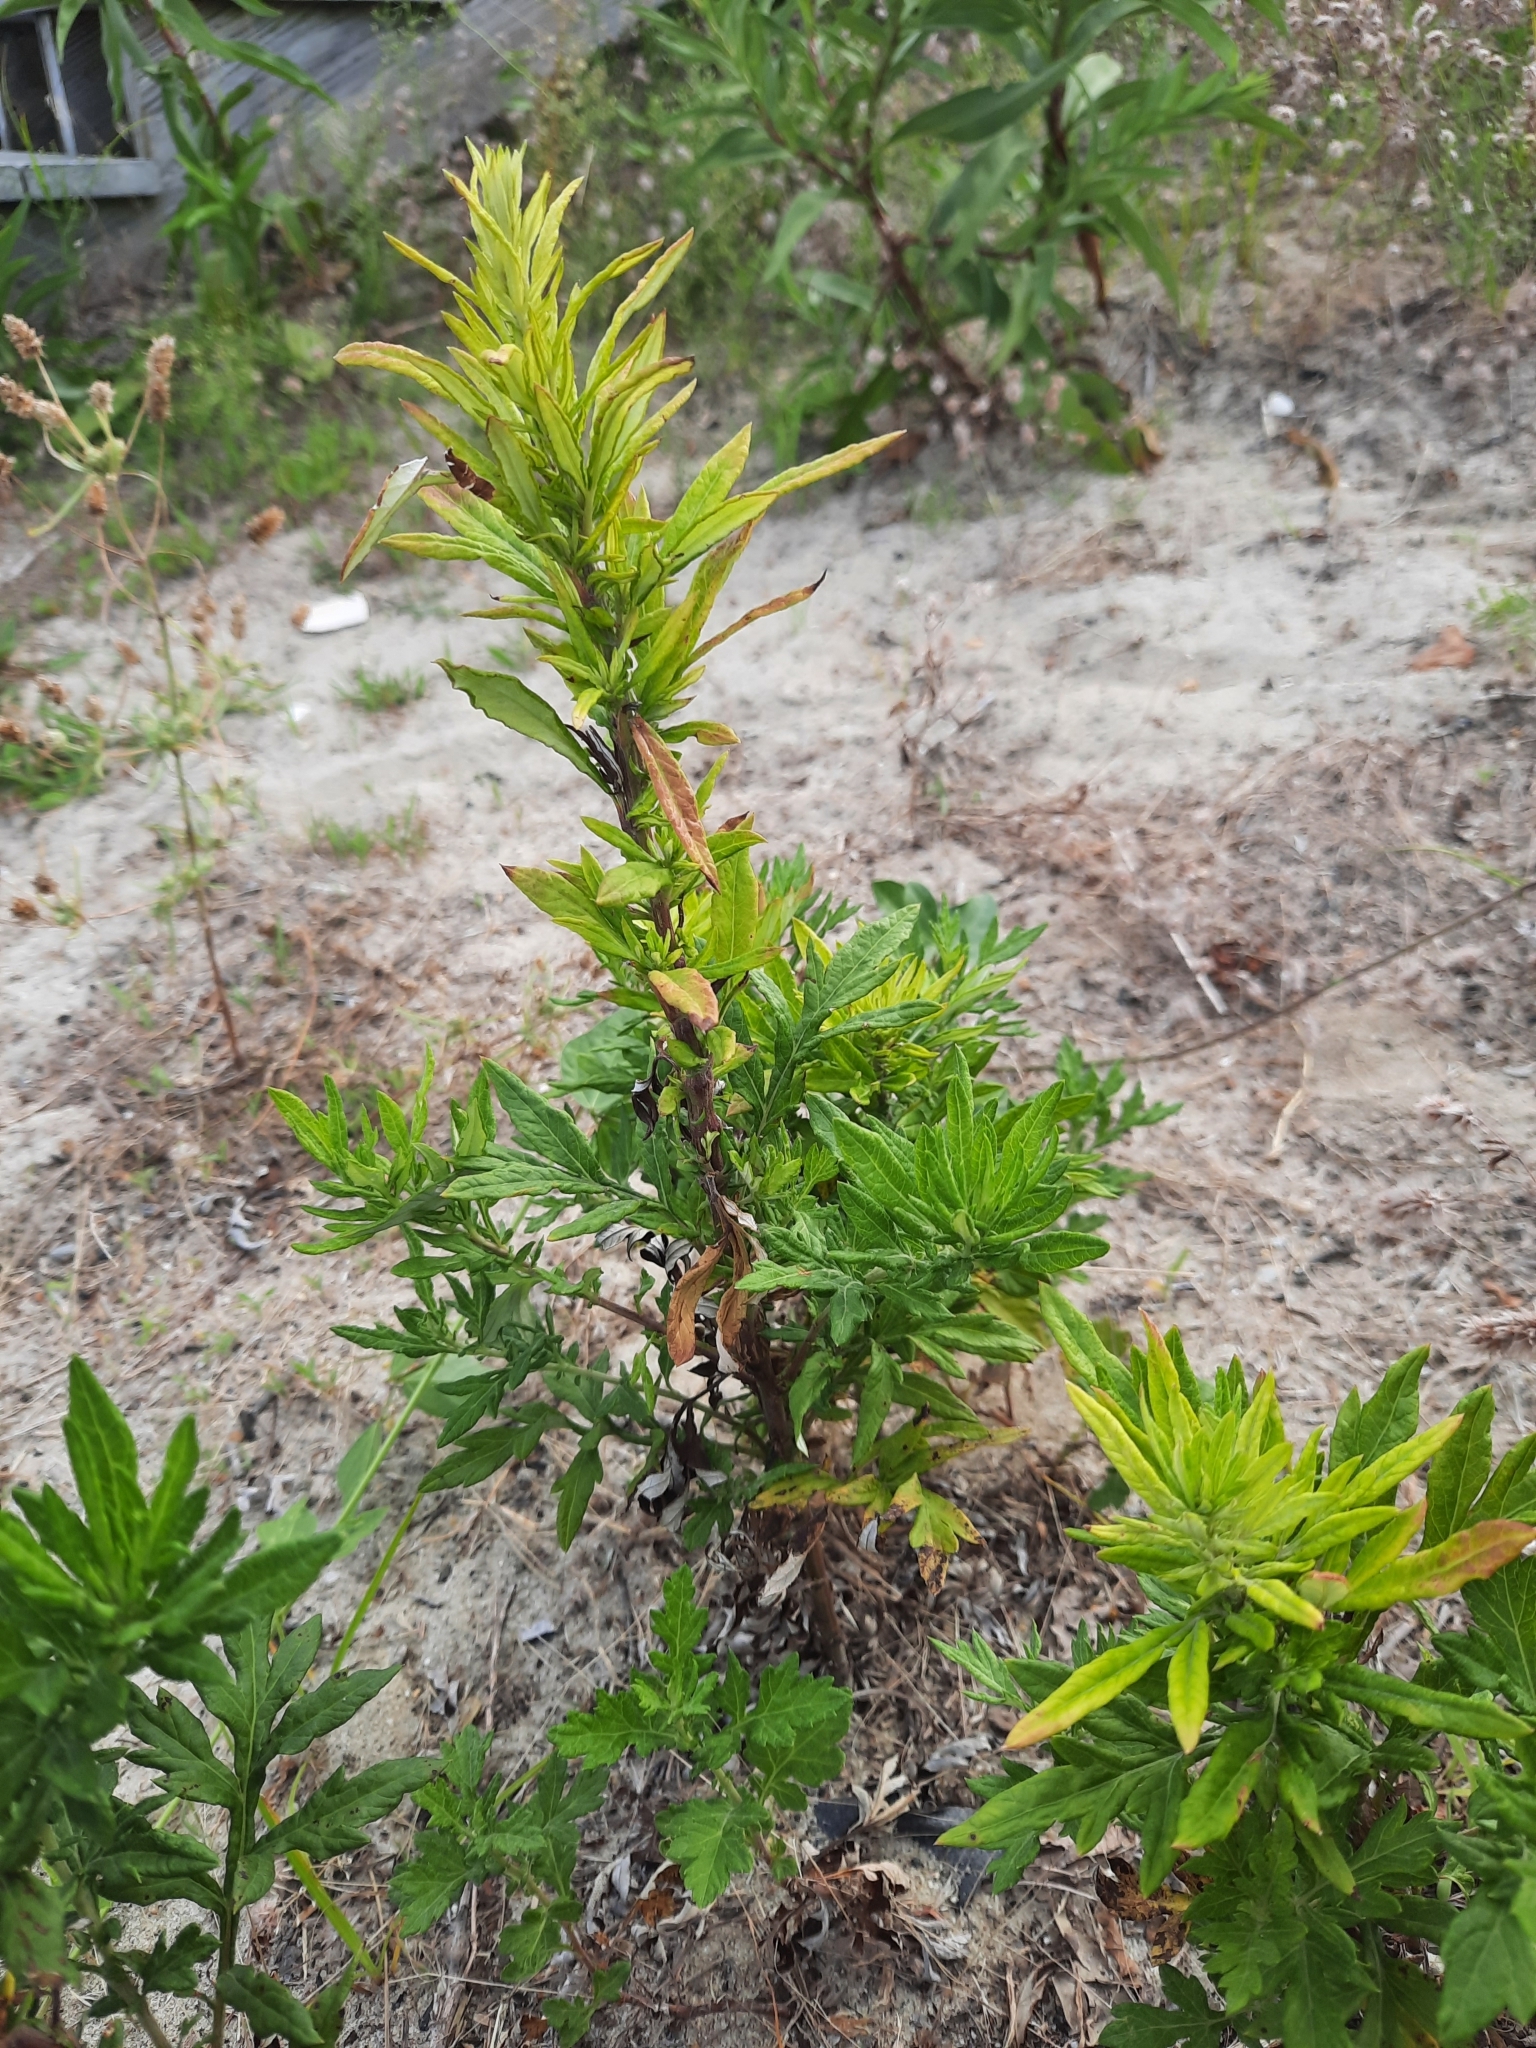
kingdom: Plantae
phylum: Tracheophyta
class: Magnoliopsida
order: Asterales
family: Asteraceae
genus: Artemisia
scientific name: Artemisia vulgaris
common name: Mugwort
